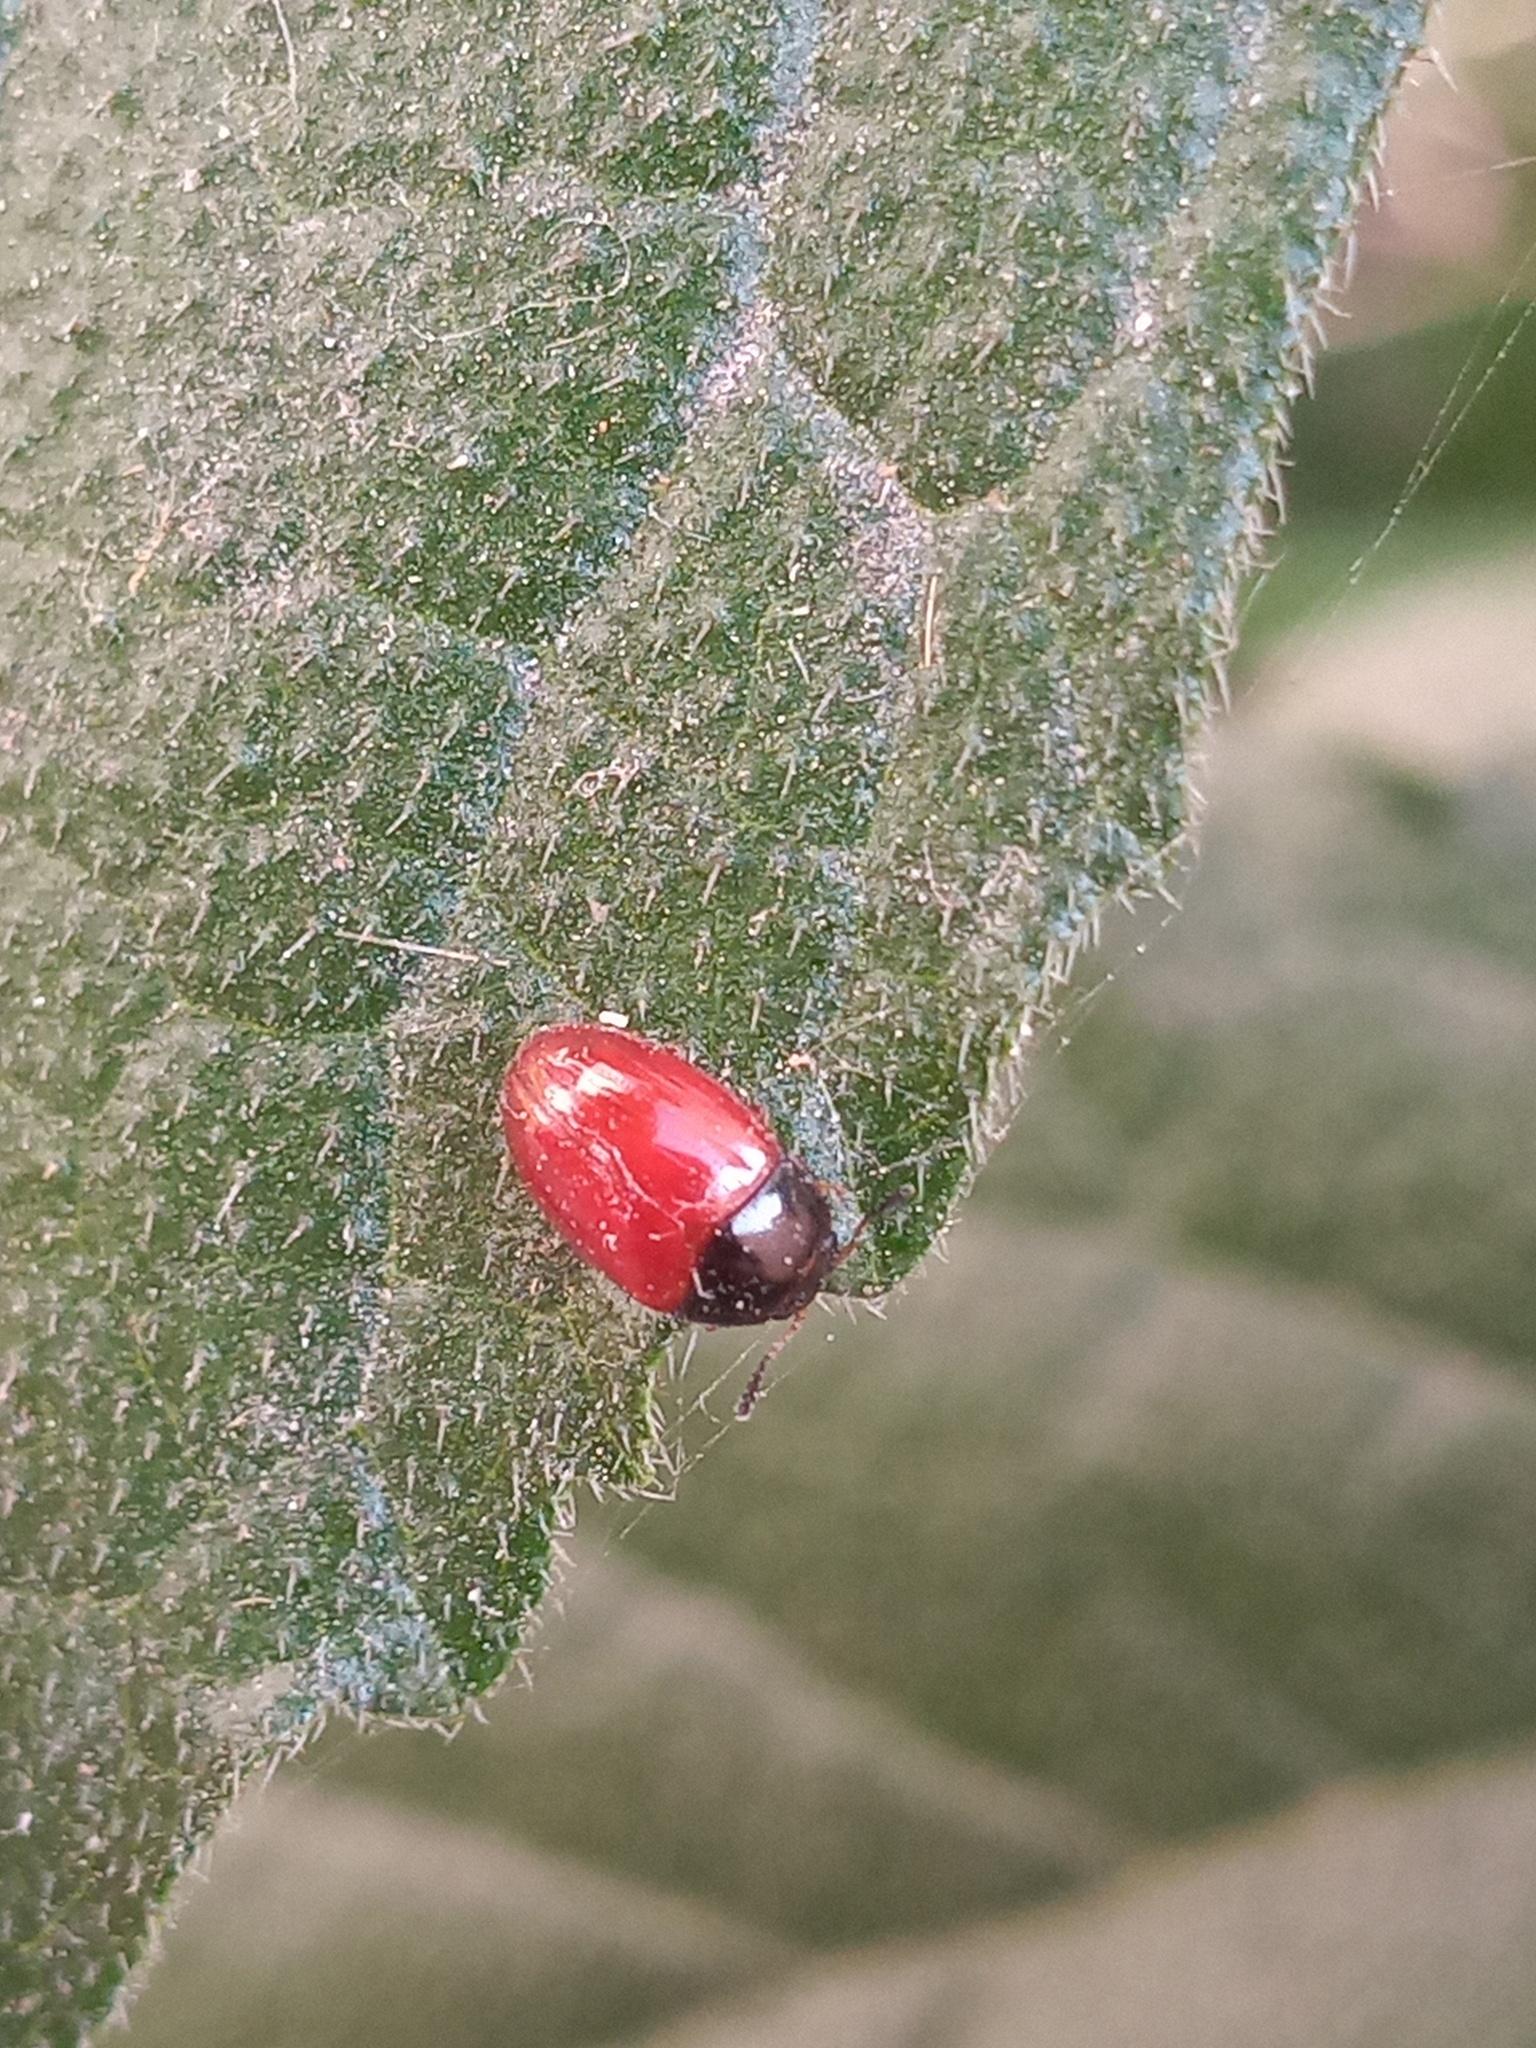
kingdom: Animalia
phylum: Arthropoda
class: Insecta
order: Coleoptera
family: Erotylidae
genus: Triplax
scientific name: Triplax errans
